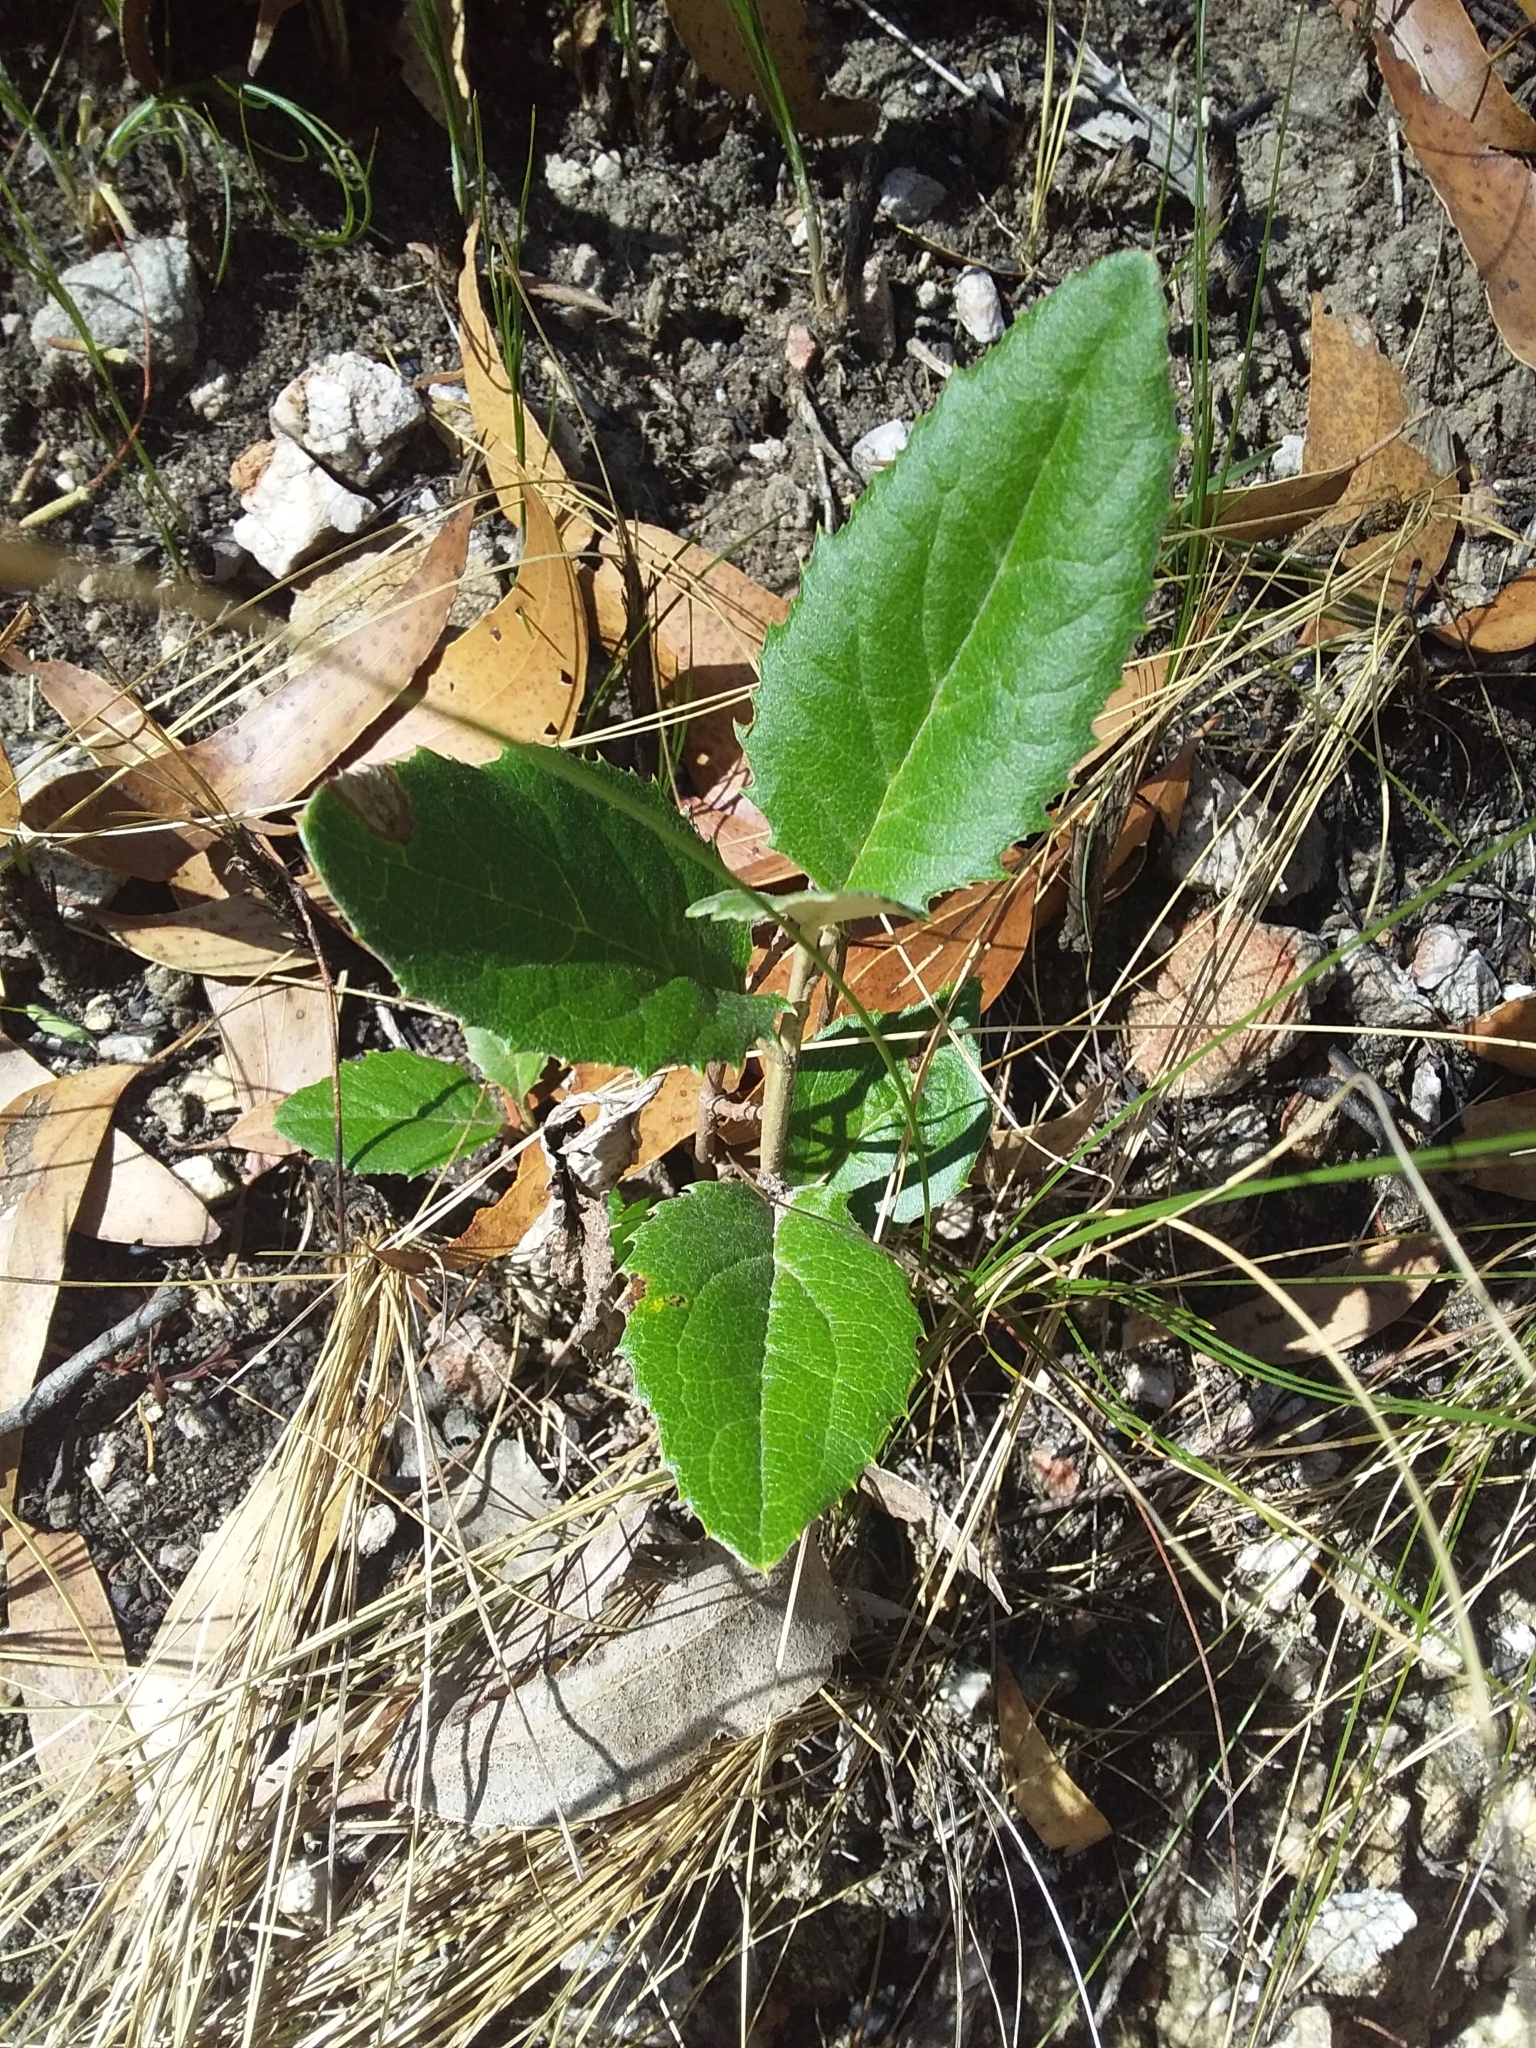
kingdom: Plantae
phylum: Tracheophyta
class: Magnoliopsida
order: Asterales
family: Asteraceae
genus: Olearia
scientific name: Olearia grandiflora
